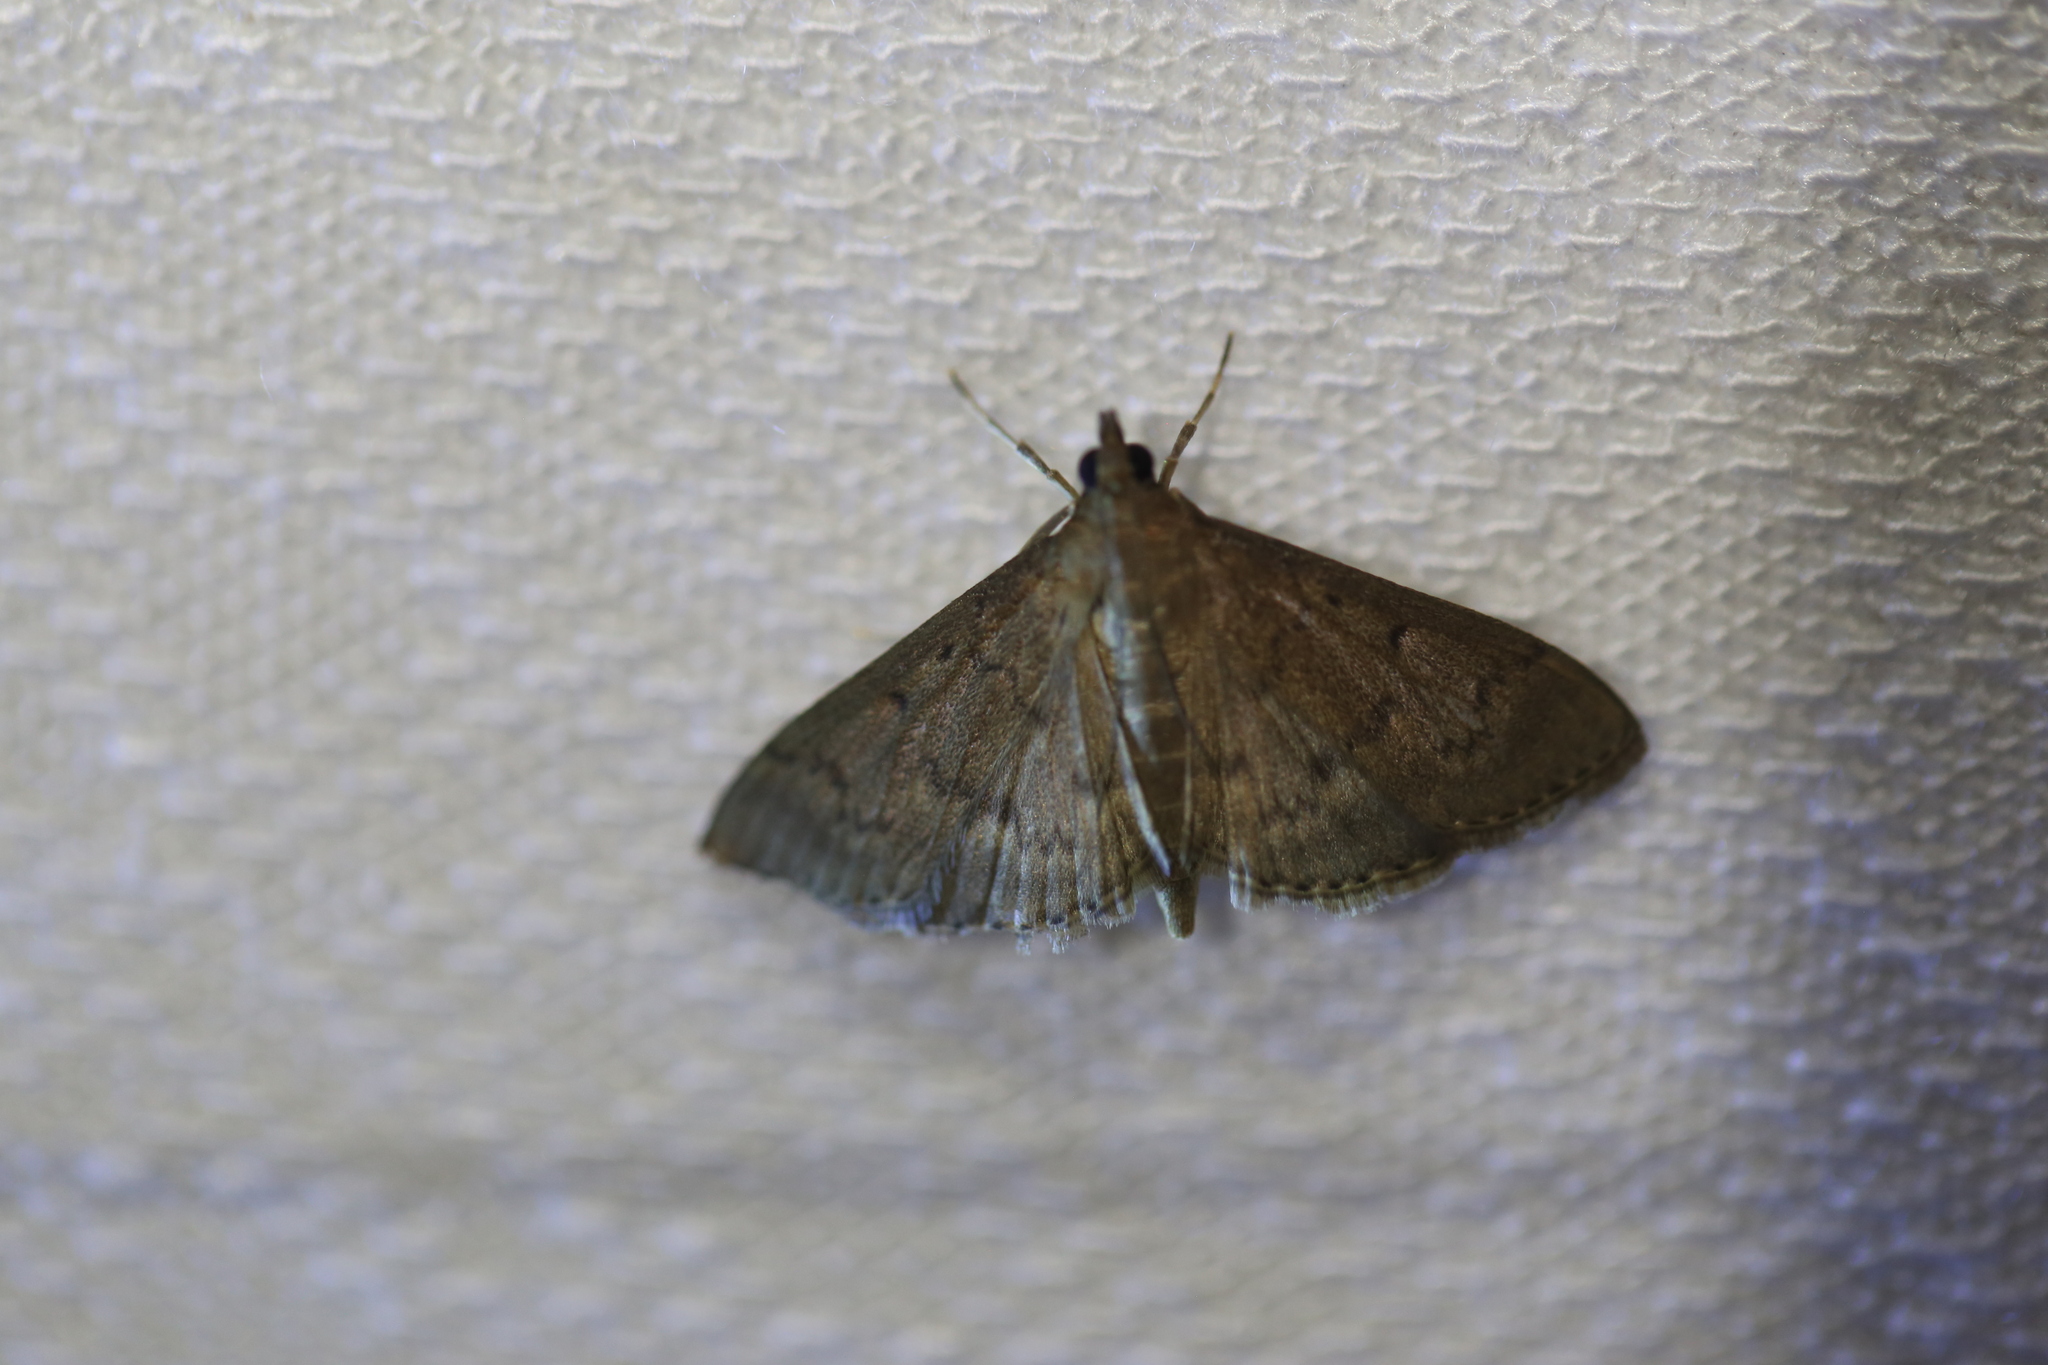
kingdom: Animalia
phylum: Arthropoda
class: Insecta
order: Lepidoptera
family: Crambidae
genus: Herpetogramma
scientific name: Herpetogramma licarsisalis
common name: Grass webworm
